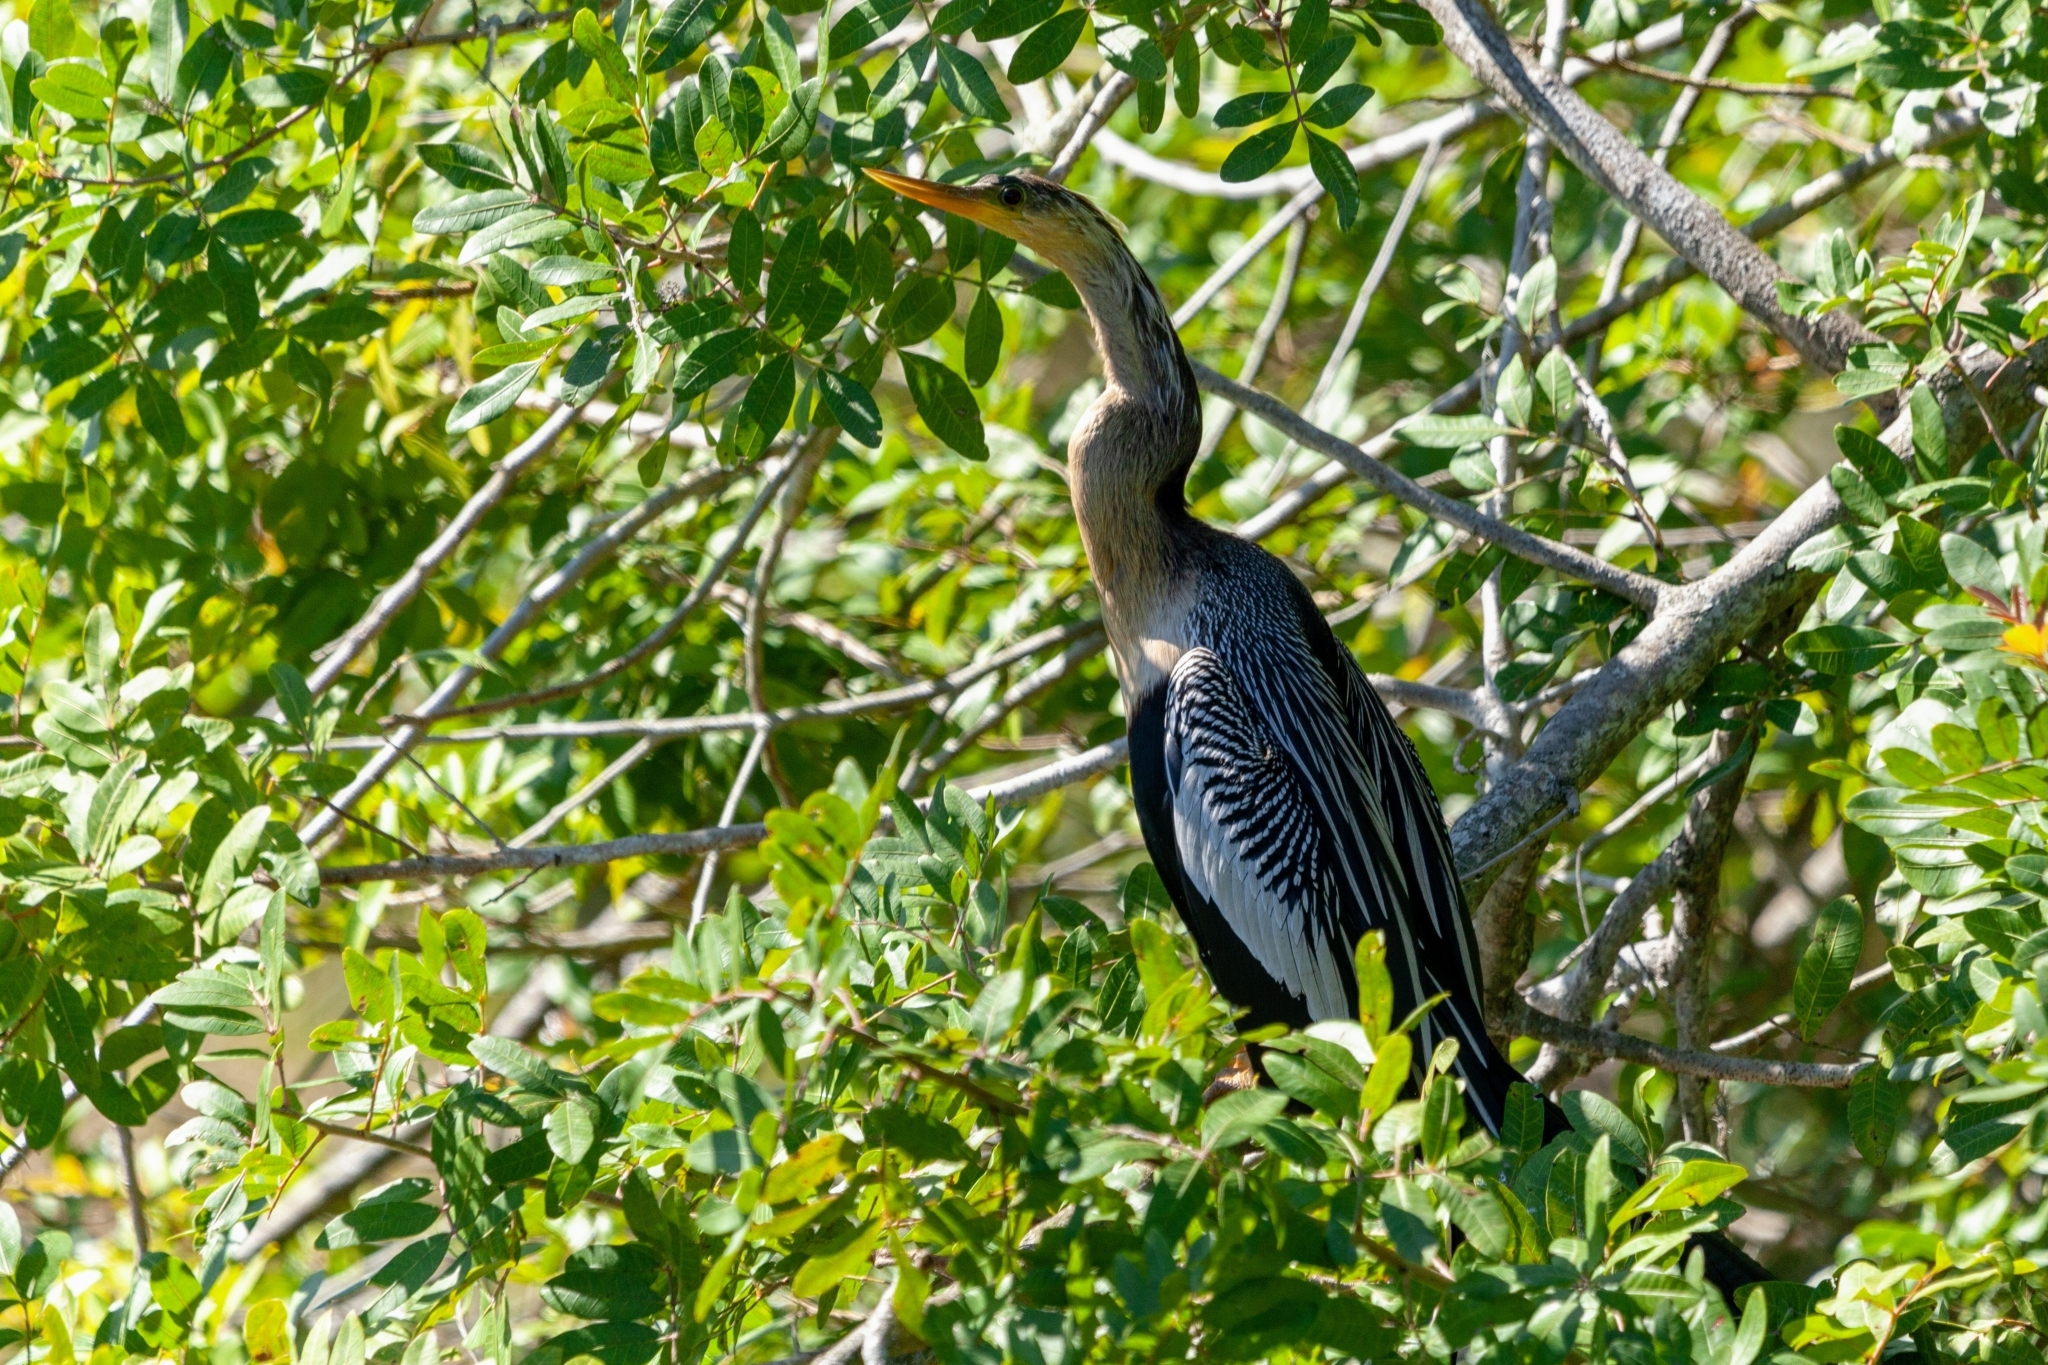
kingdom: Animalia
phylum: Chordata
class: Aves
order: Suliformes
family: Anhingidae
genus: Anhinga
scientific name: Anhinga anhinga
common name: Anhinga
